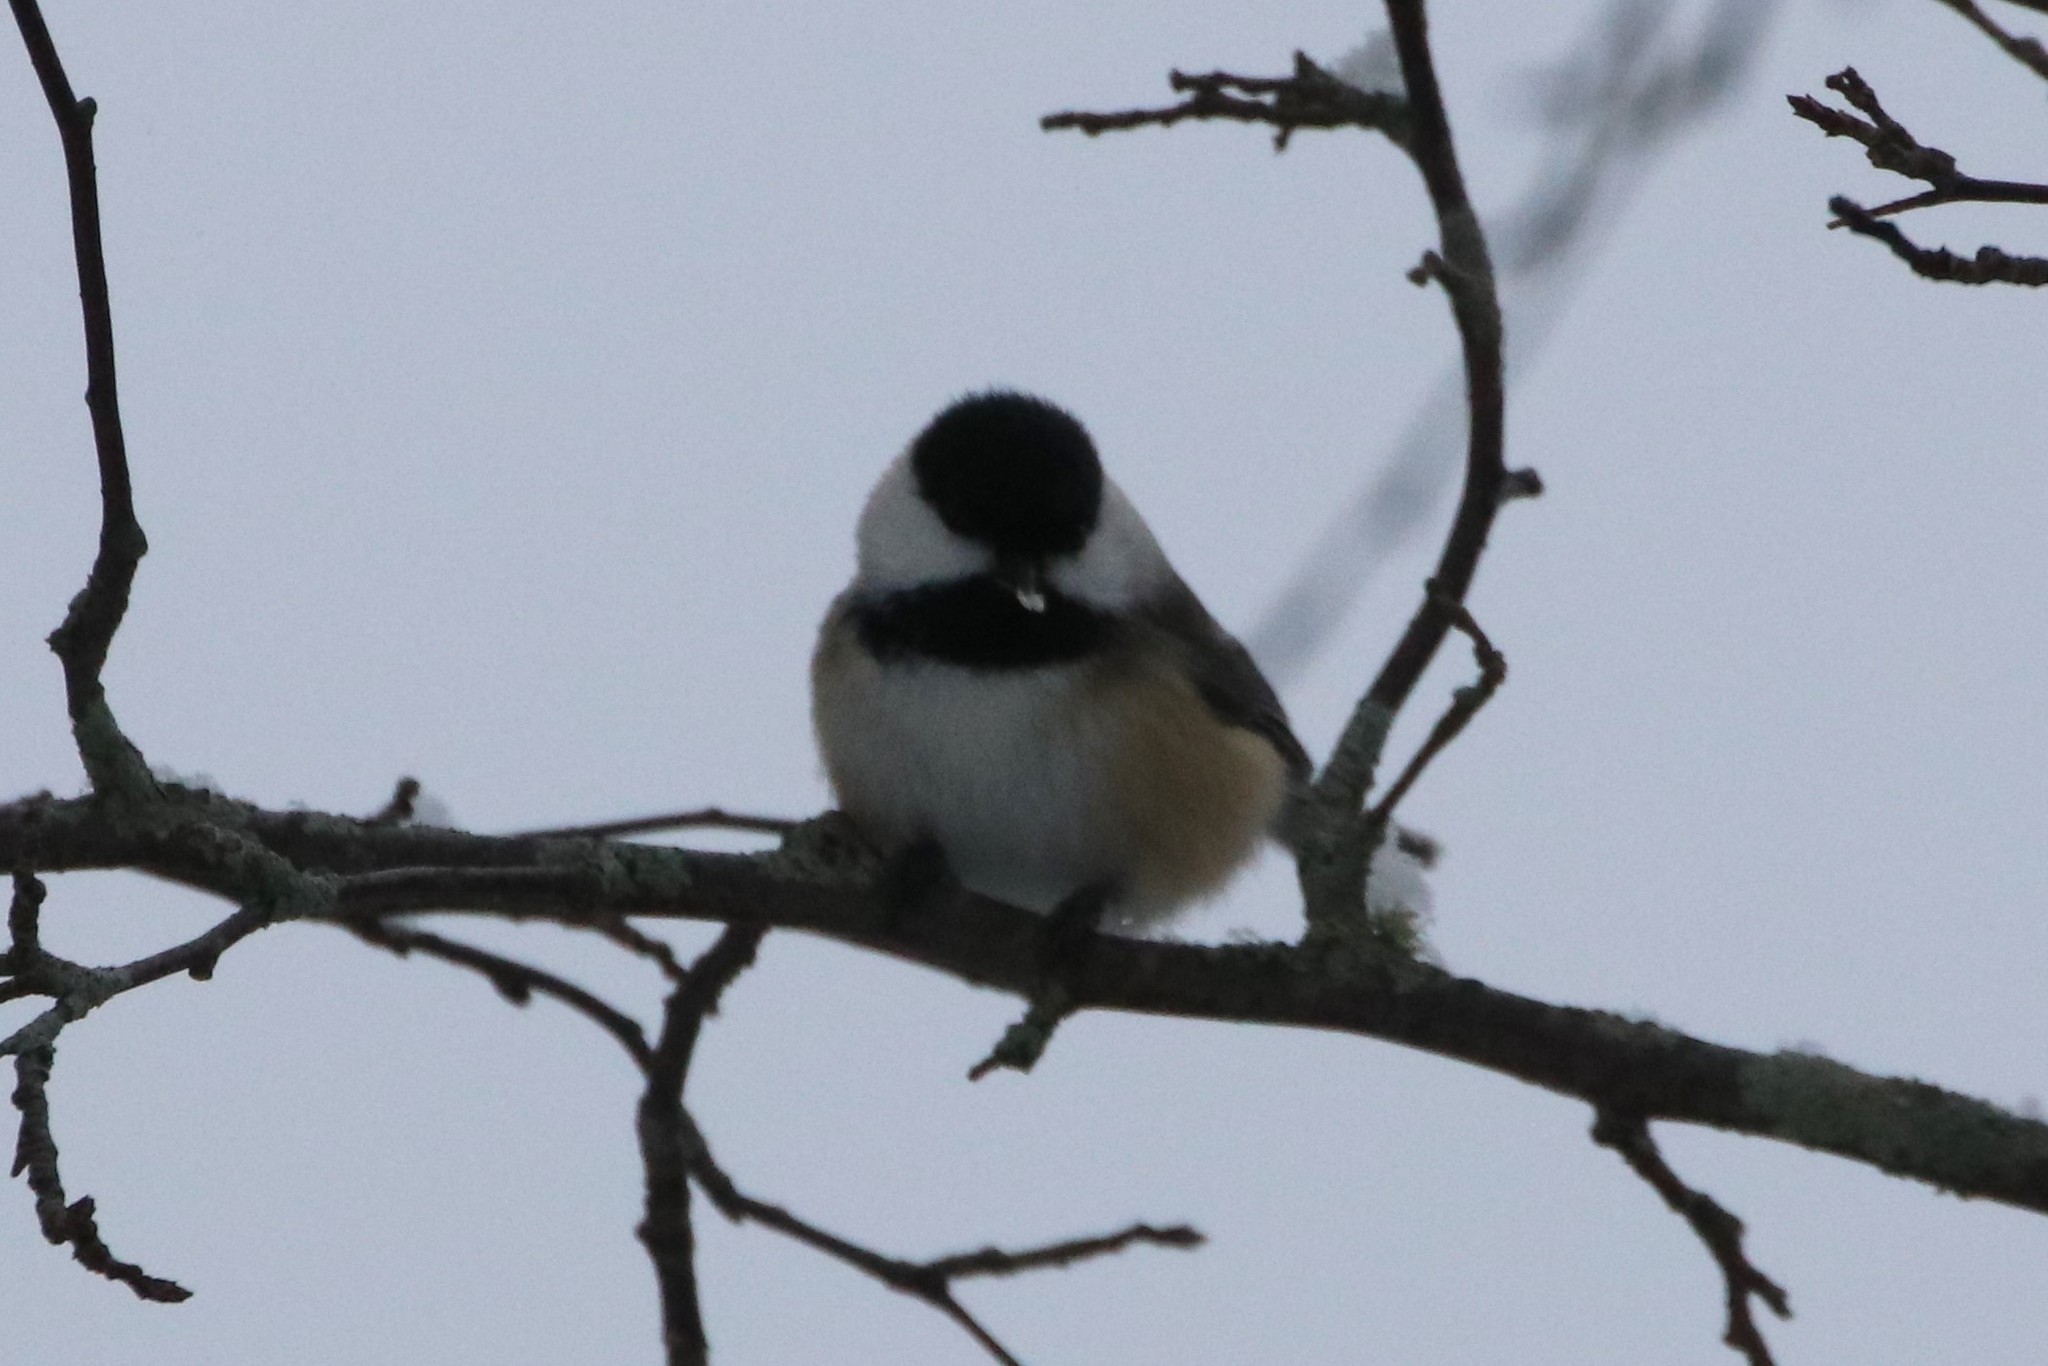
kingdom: Animalia
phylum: Chordata
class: Aves
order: Passeriformes
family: Paridae
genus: Poecile
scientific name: Poecile atricapillus
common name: Black-capped chickadee
